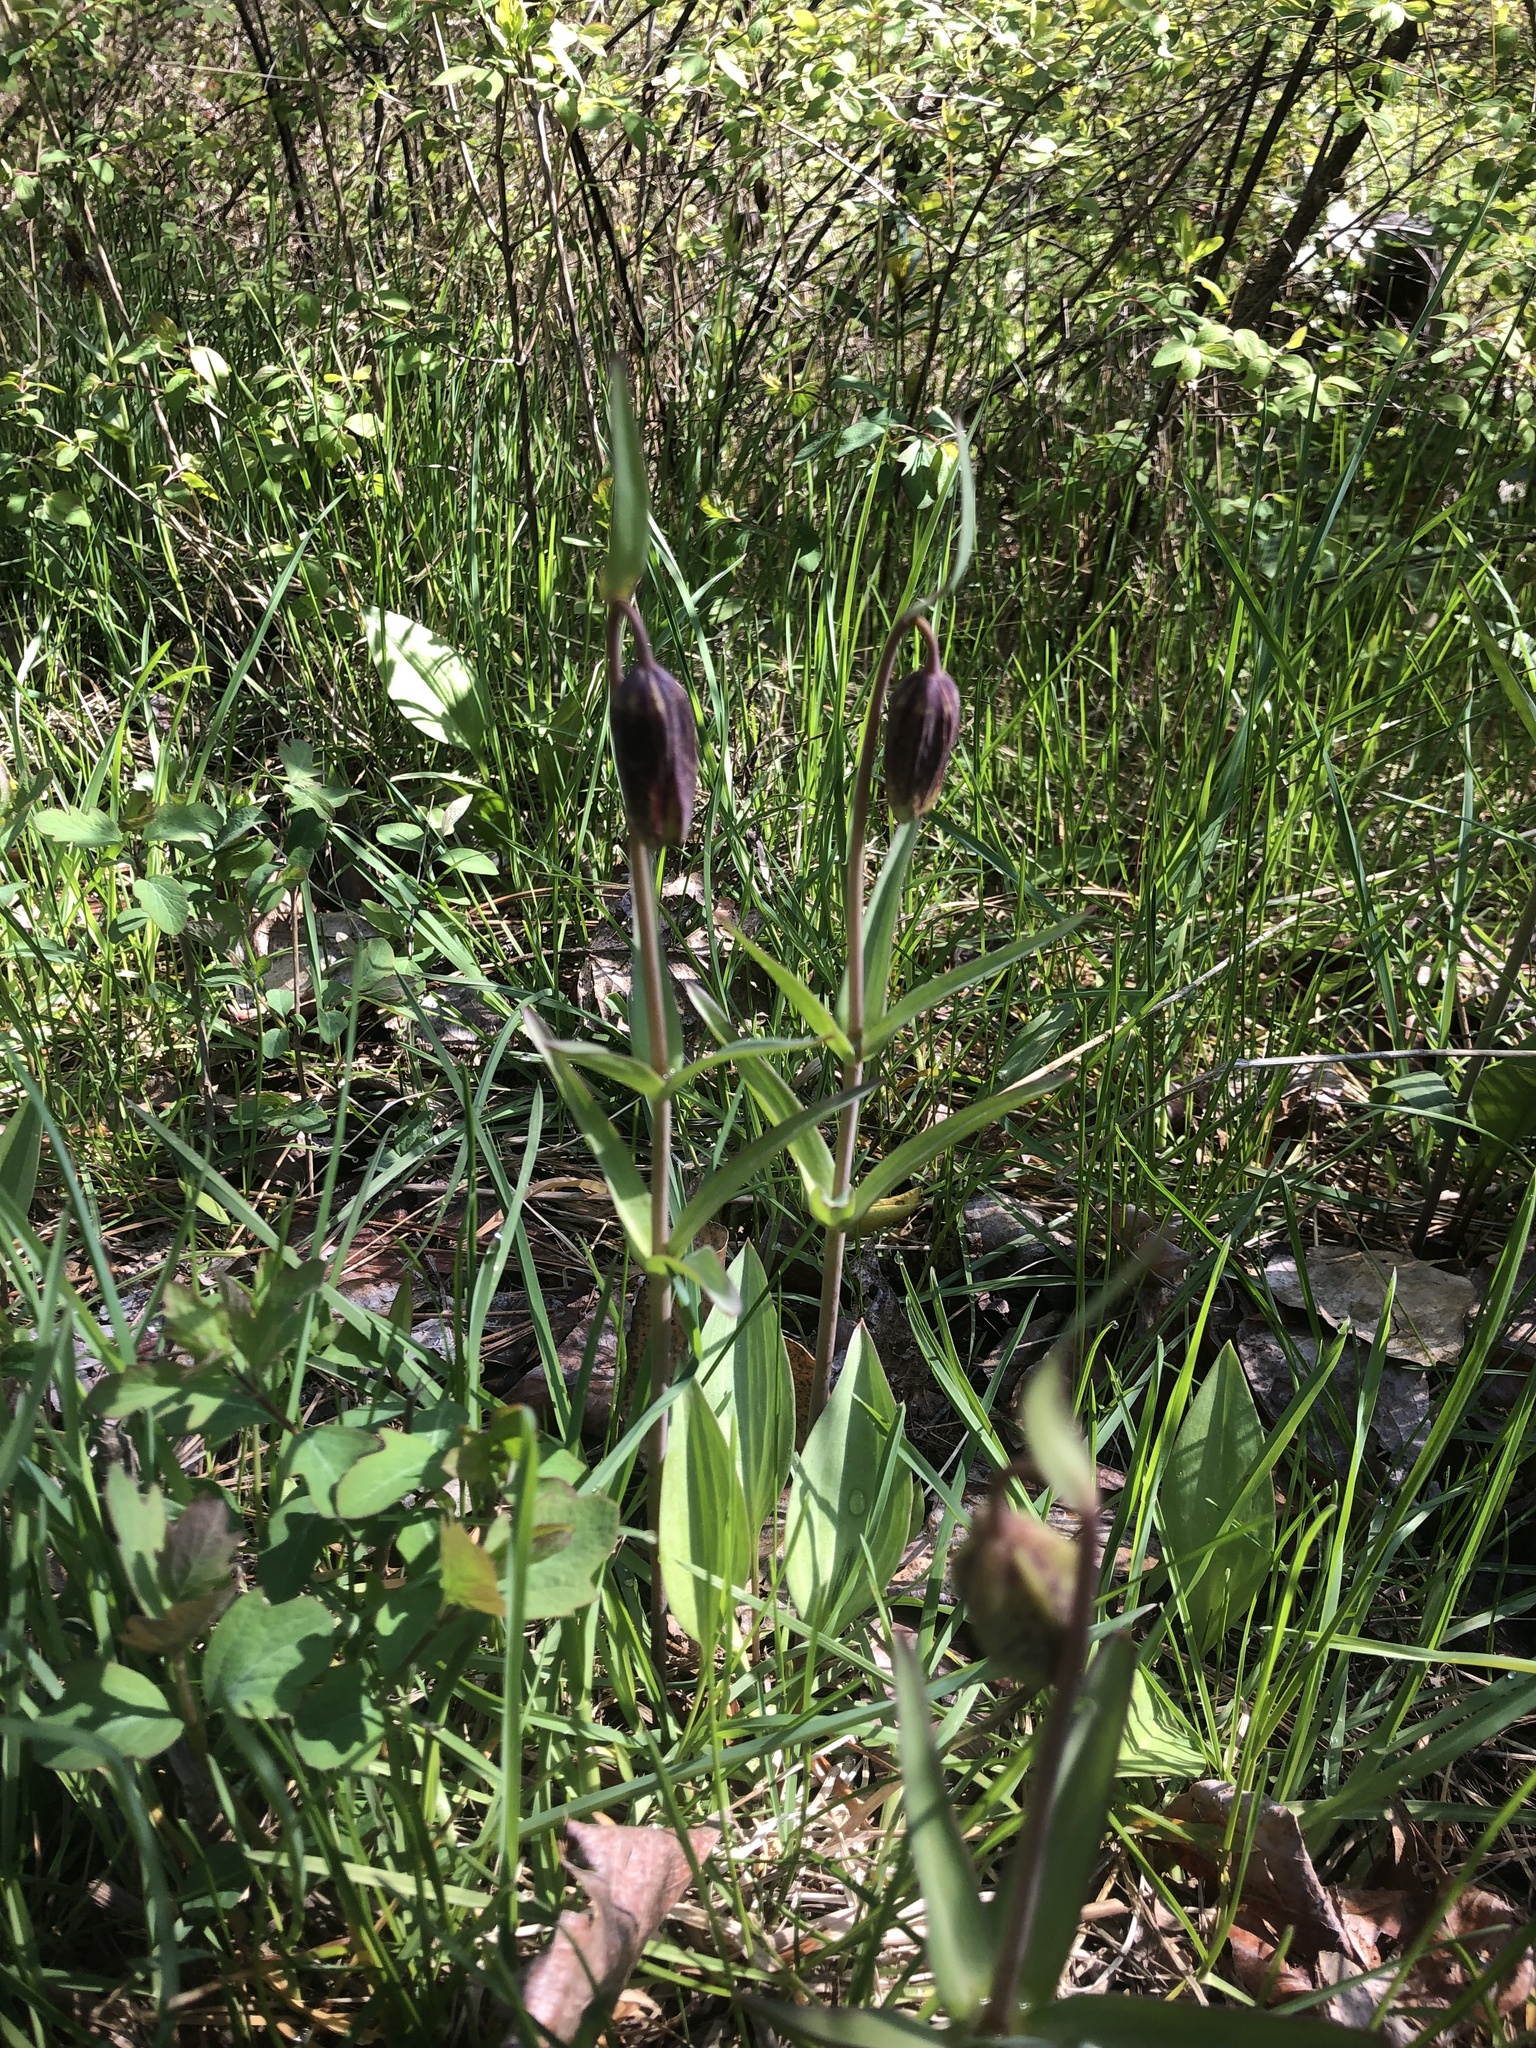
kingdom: Plantae
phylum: Tracheophyta
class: Liliopsida
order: Liliales
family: Liliaceae
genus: Fritillaria
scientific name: Fritillaria affinis
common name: Ojai fritillary
